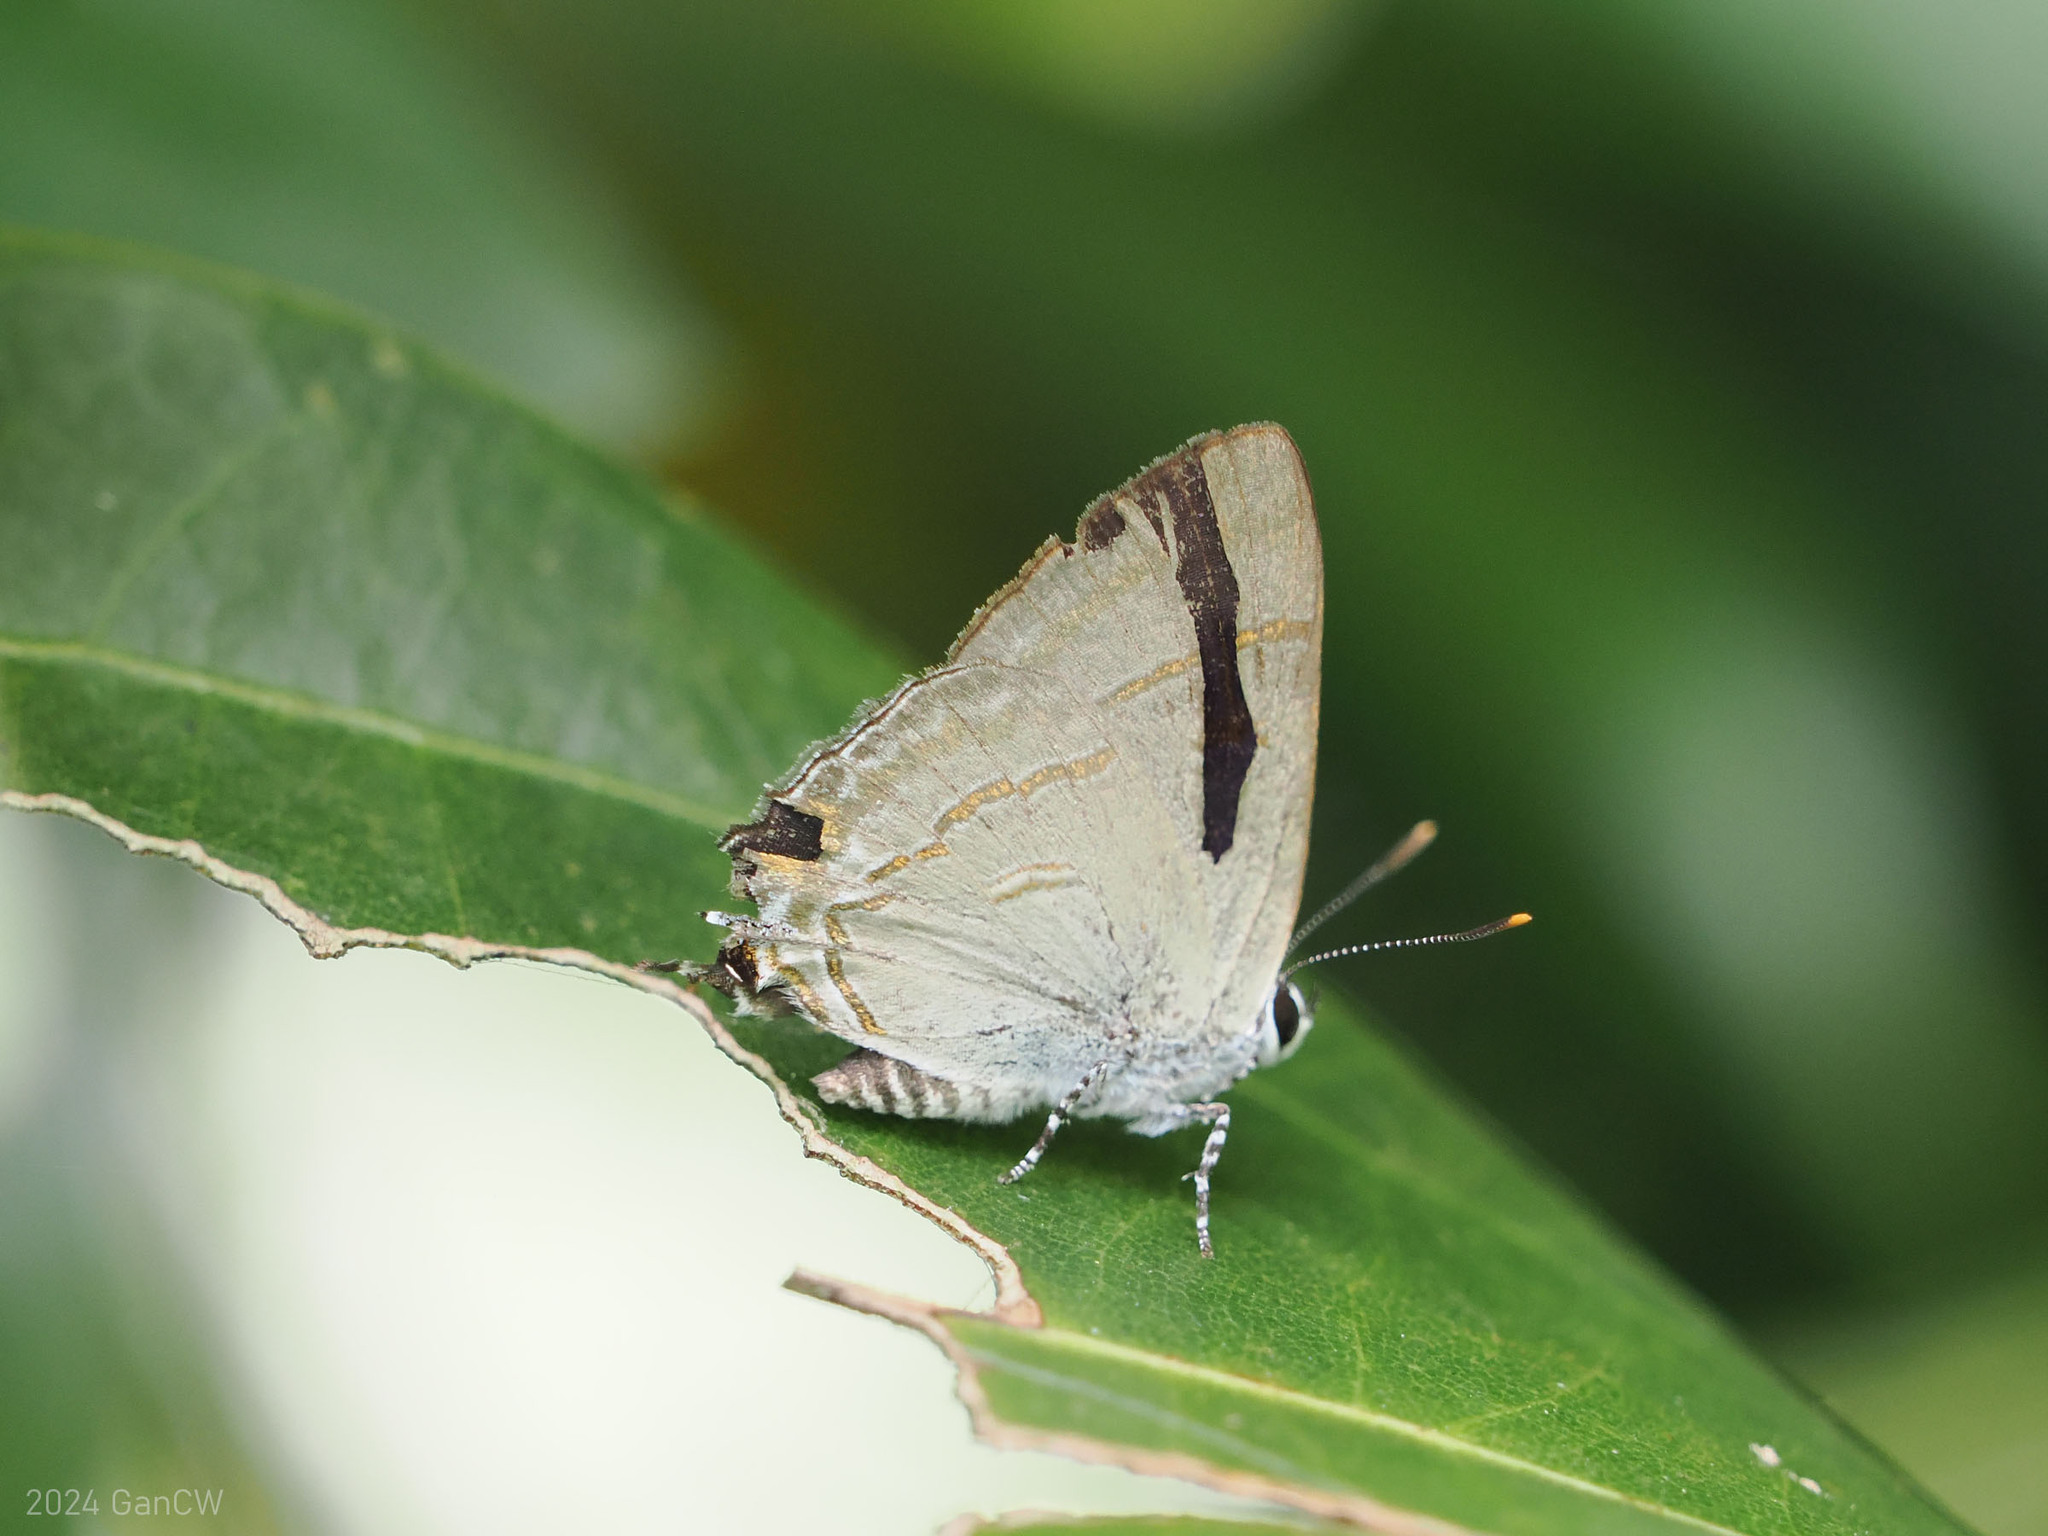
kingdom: Animalia
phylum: Arthropoda
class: Insecta
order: Lepidoptera
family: Lycaenidae
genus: Hypolycaena
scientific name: Hypolycaena erylus
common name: Common tit
